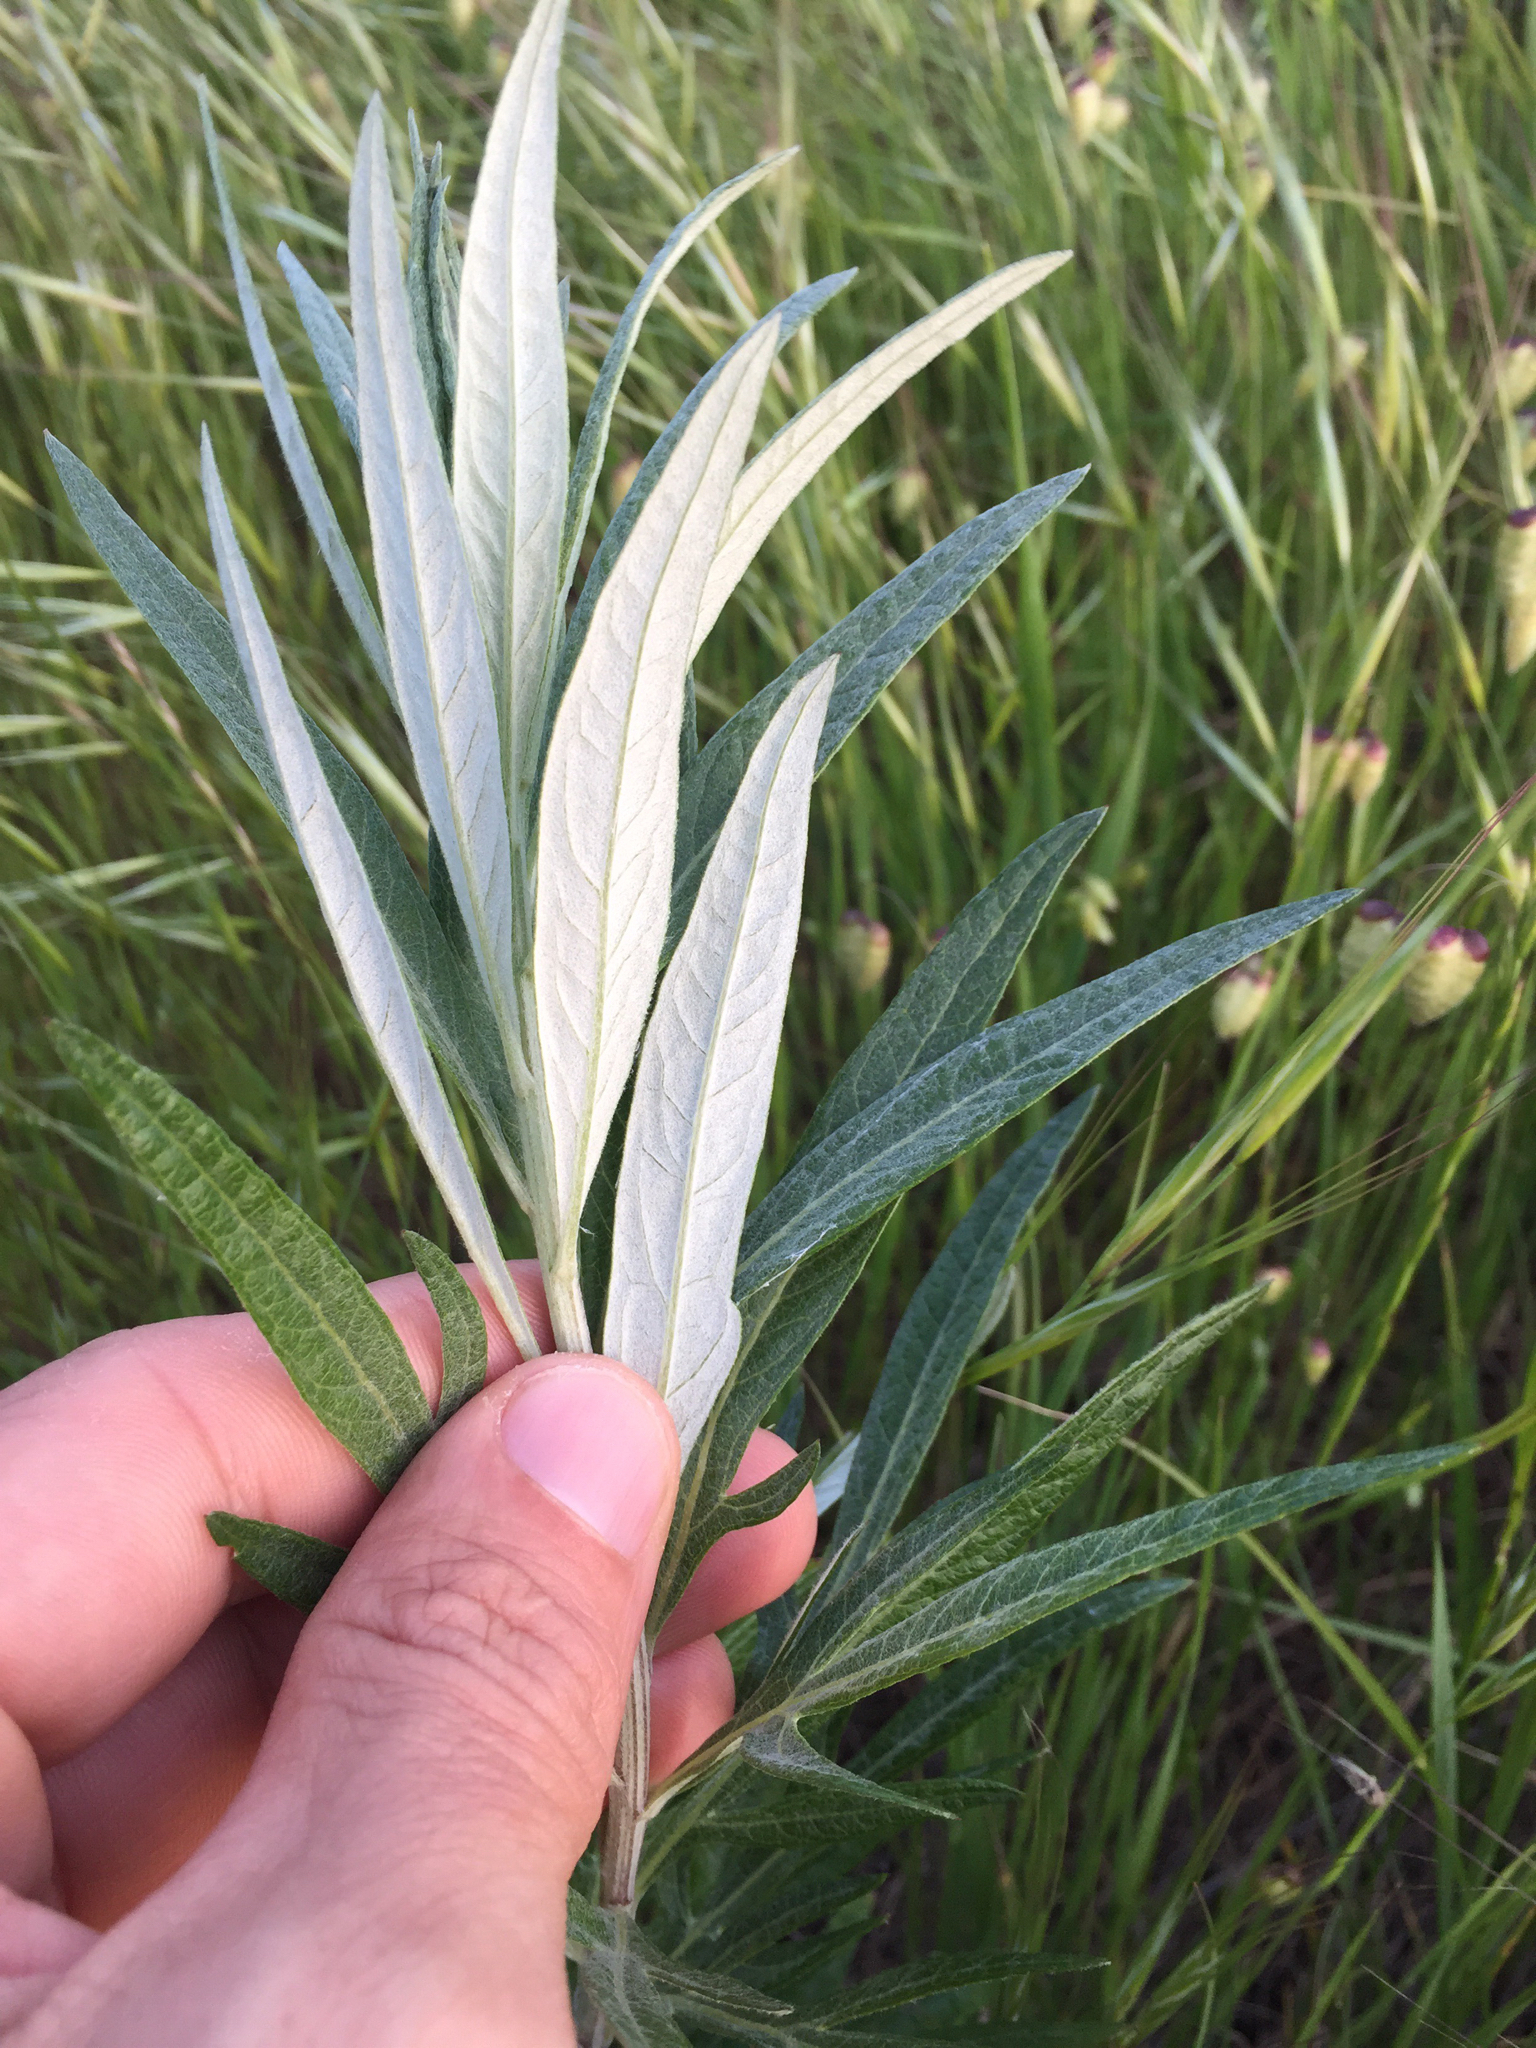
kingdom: Plantae
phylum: Tracheophyta
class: Magnoliopsida
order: Asterales
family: Asteraceae
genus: Artemisia
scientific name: Artemisia douglasiana
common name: Northwest mugwort
